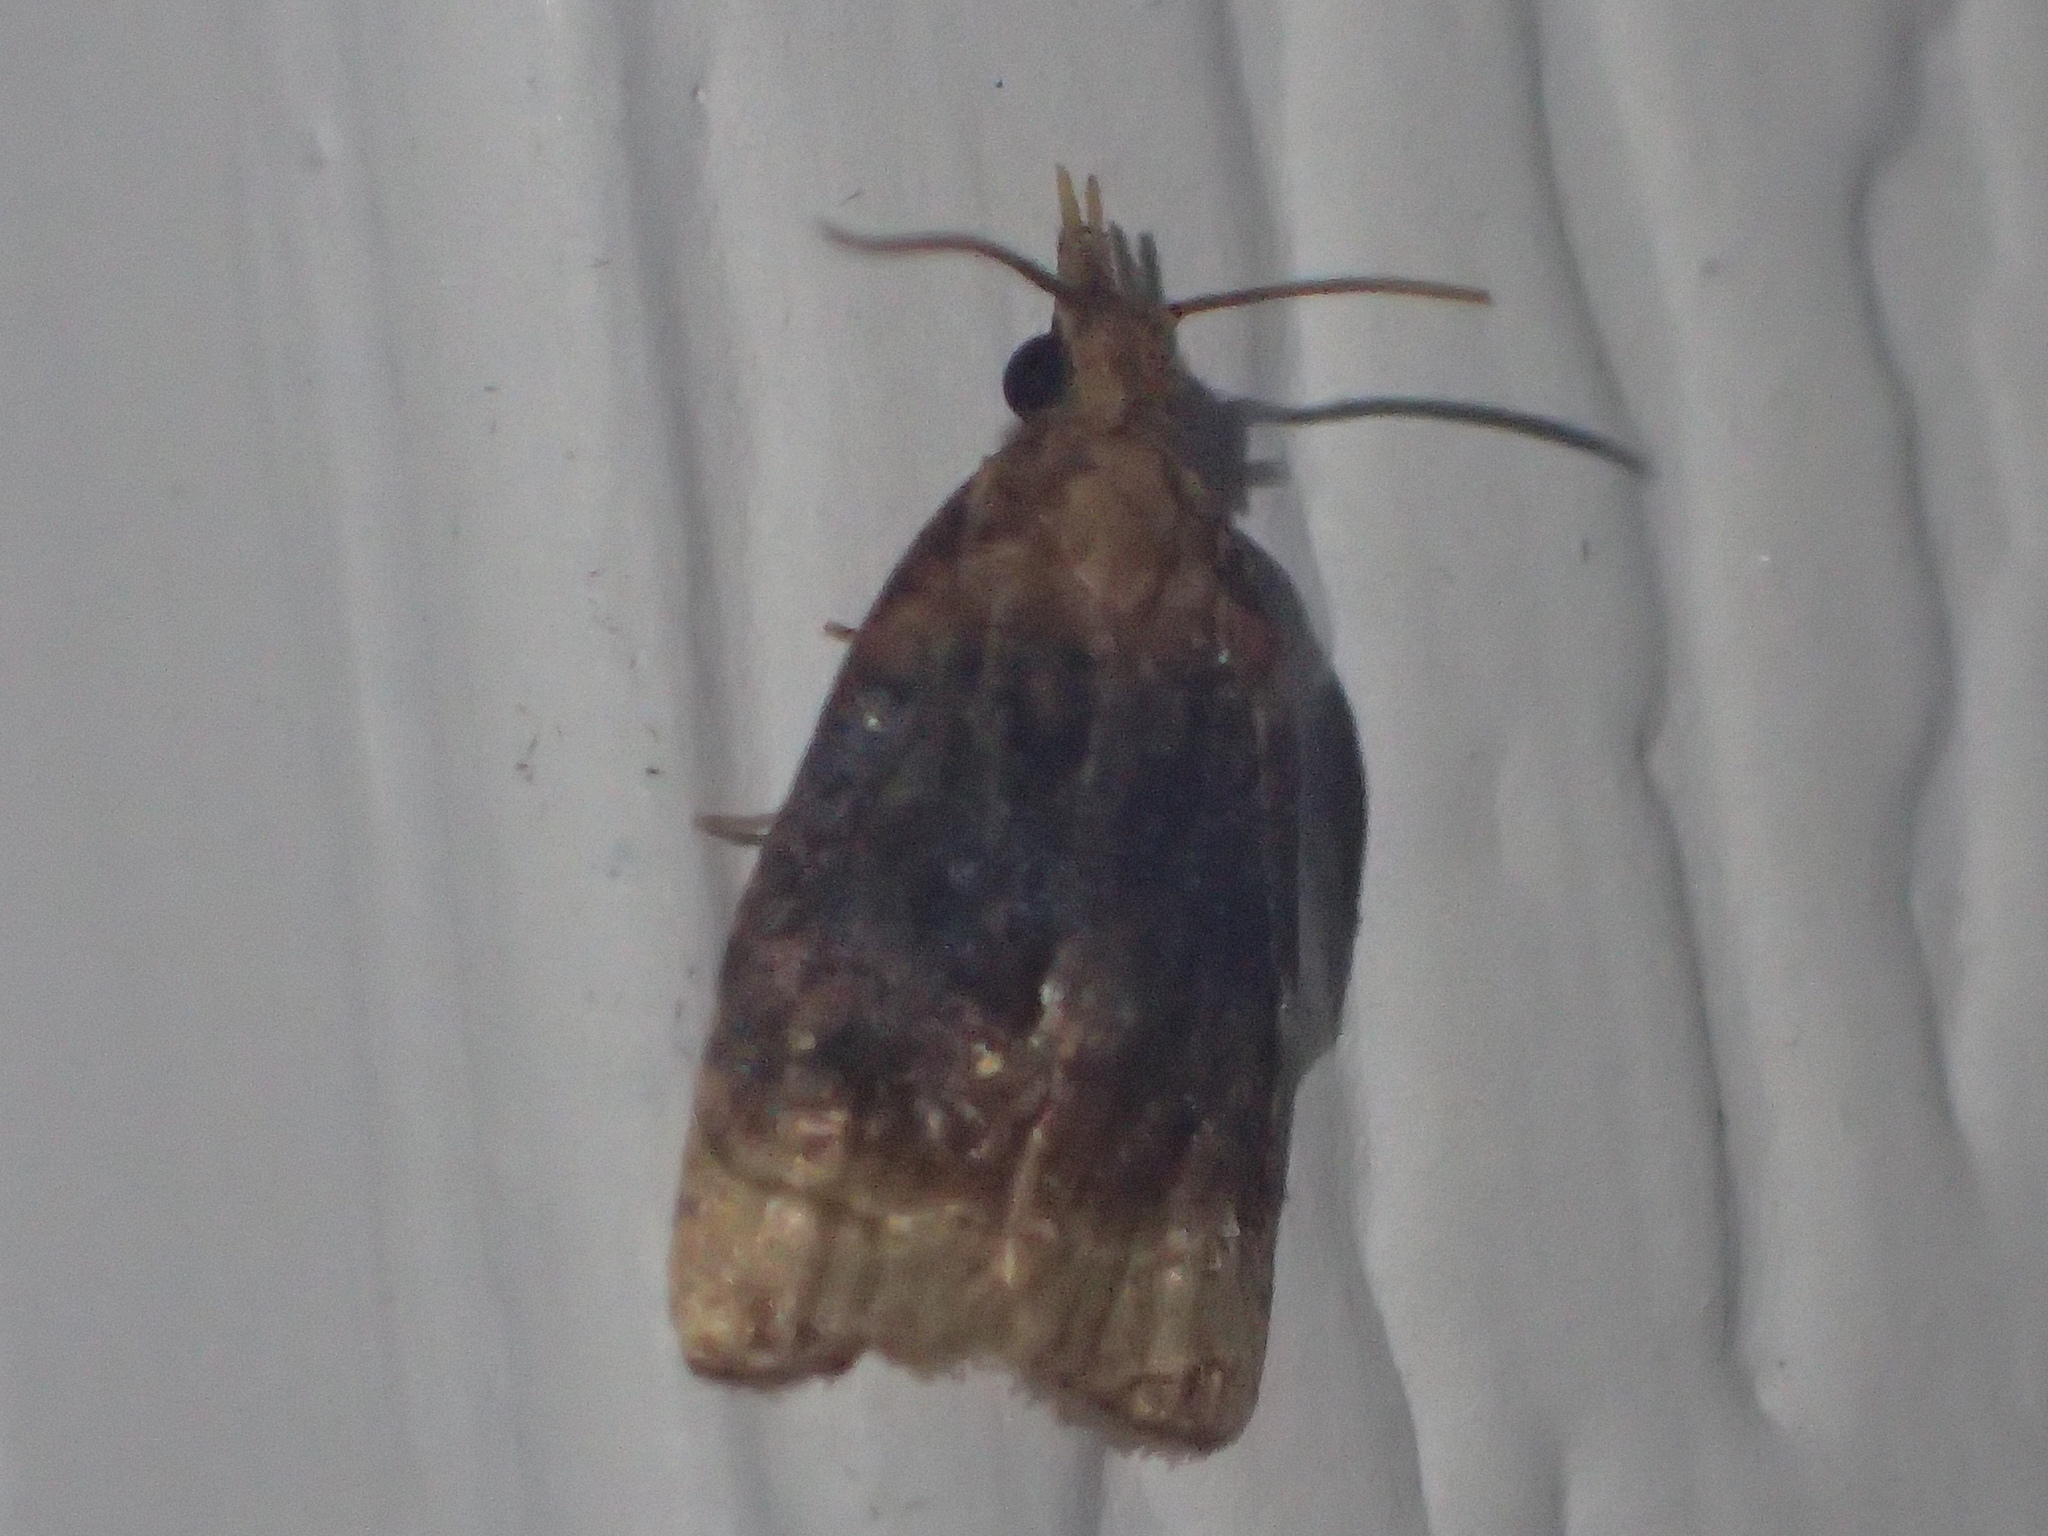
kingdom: Animalia
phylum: Arthropoda
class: Insecta
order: Lepidoptera
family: Tortricidae
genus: Platynota
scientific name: Platynota flavedana
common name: Black-shaded platynota moth
